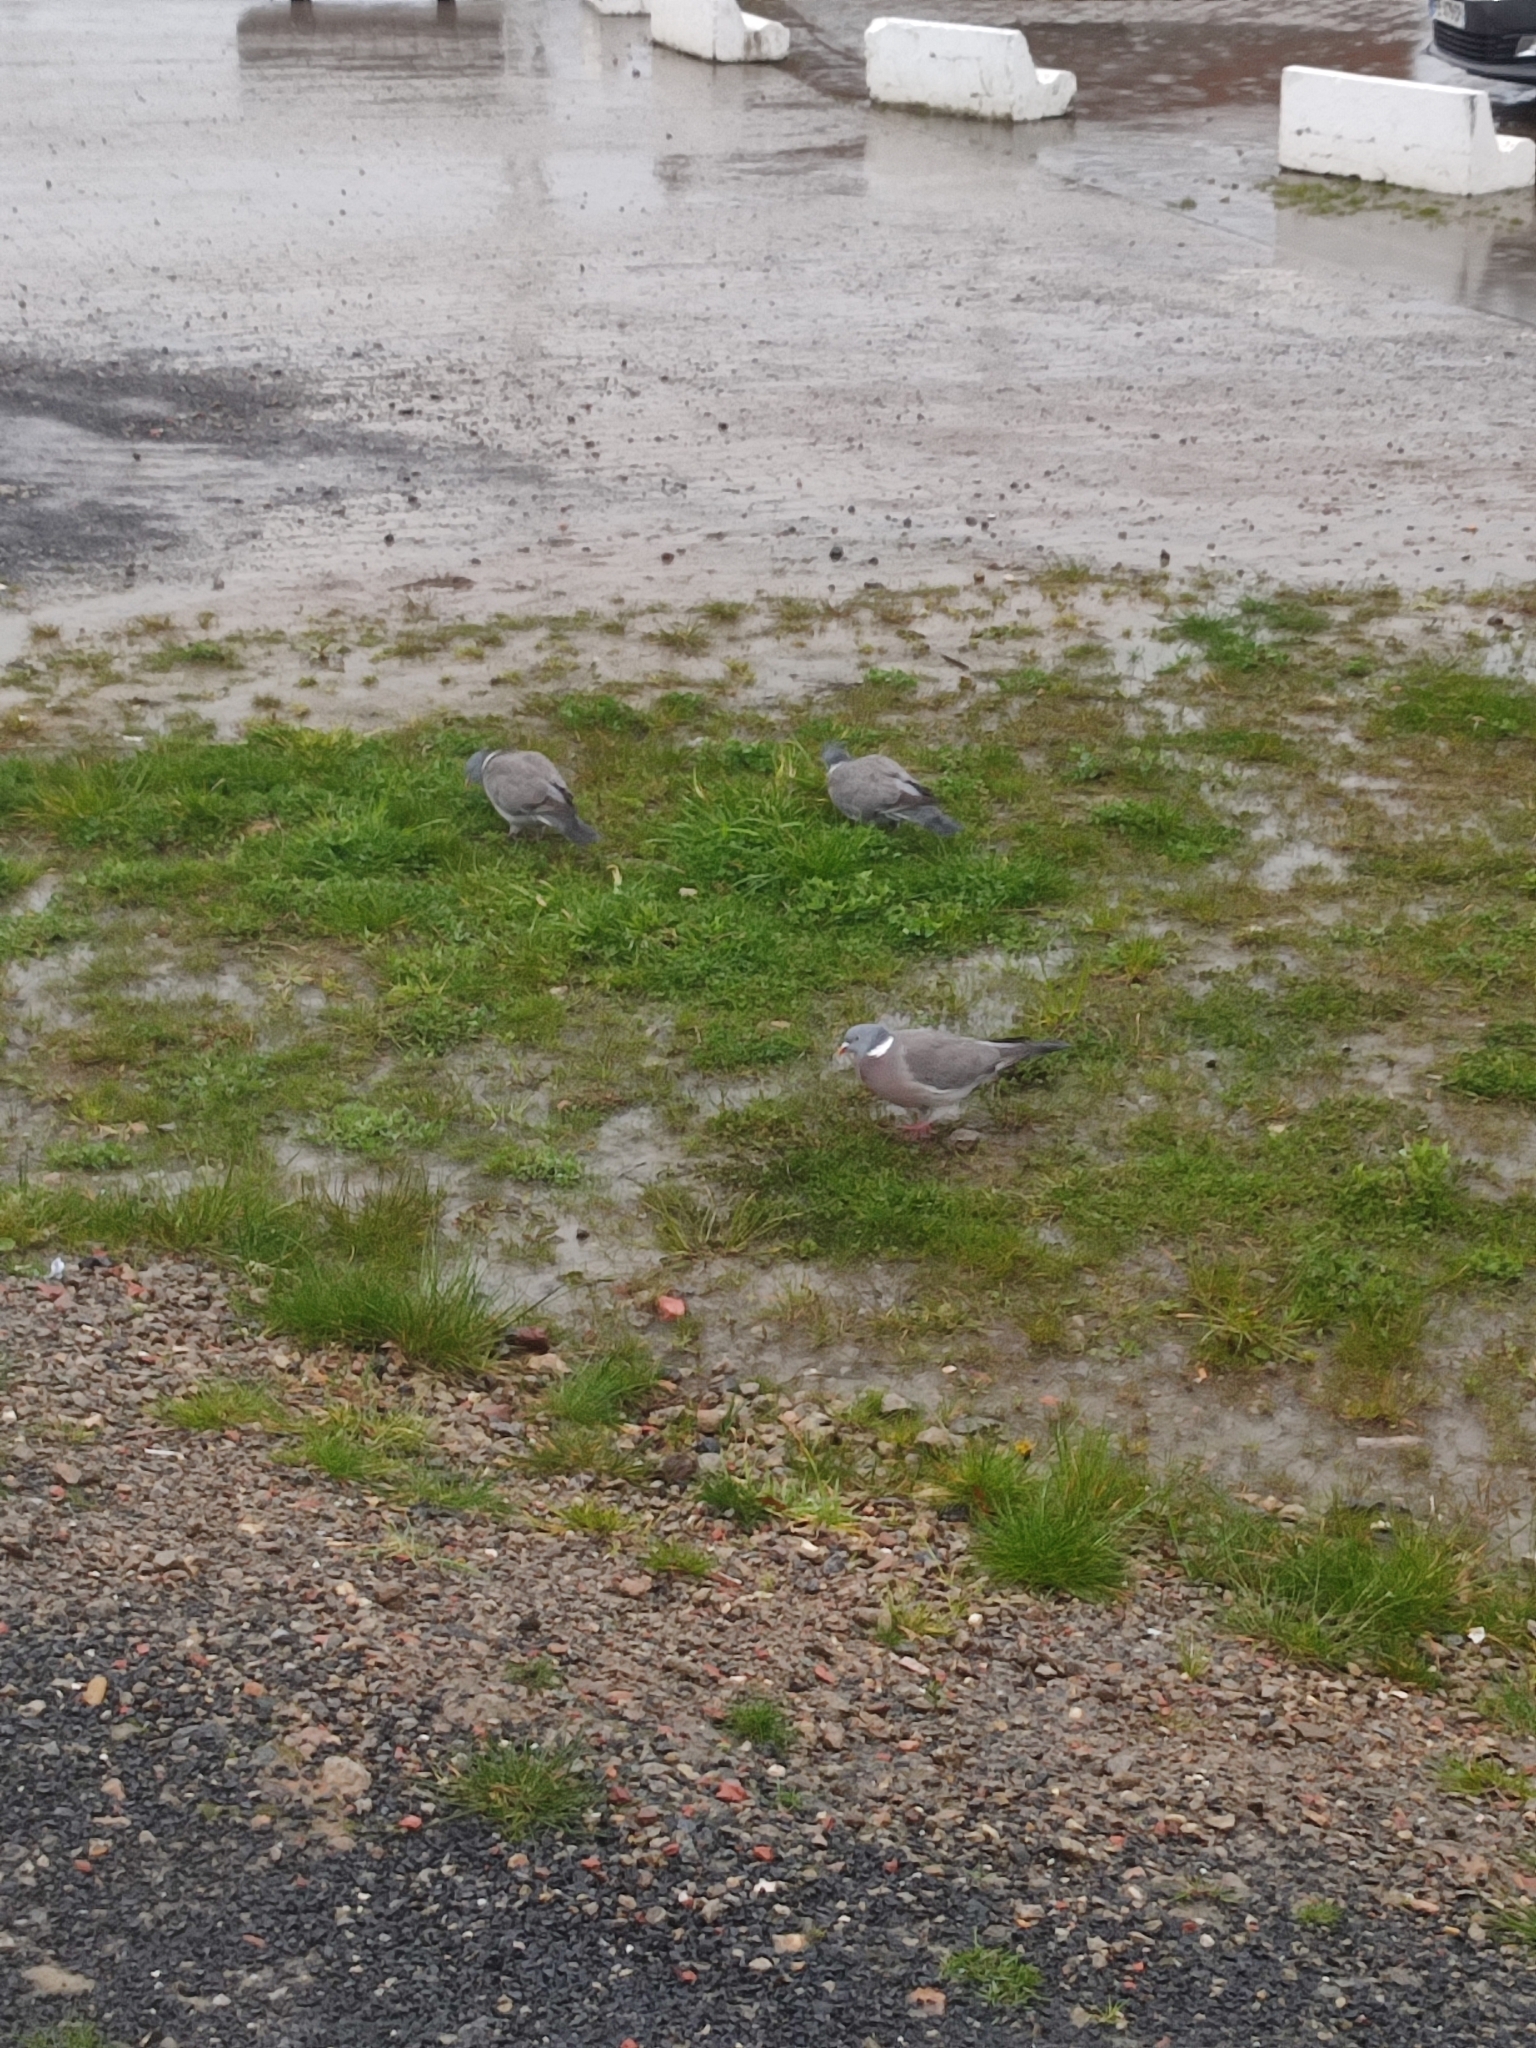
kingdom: Animalia
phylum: Chordata
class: Aves
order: Columbiformes
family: Columbidae
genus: Columba
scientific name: Columba palumbus
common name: Common wood pigeon
